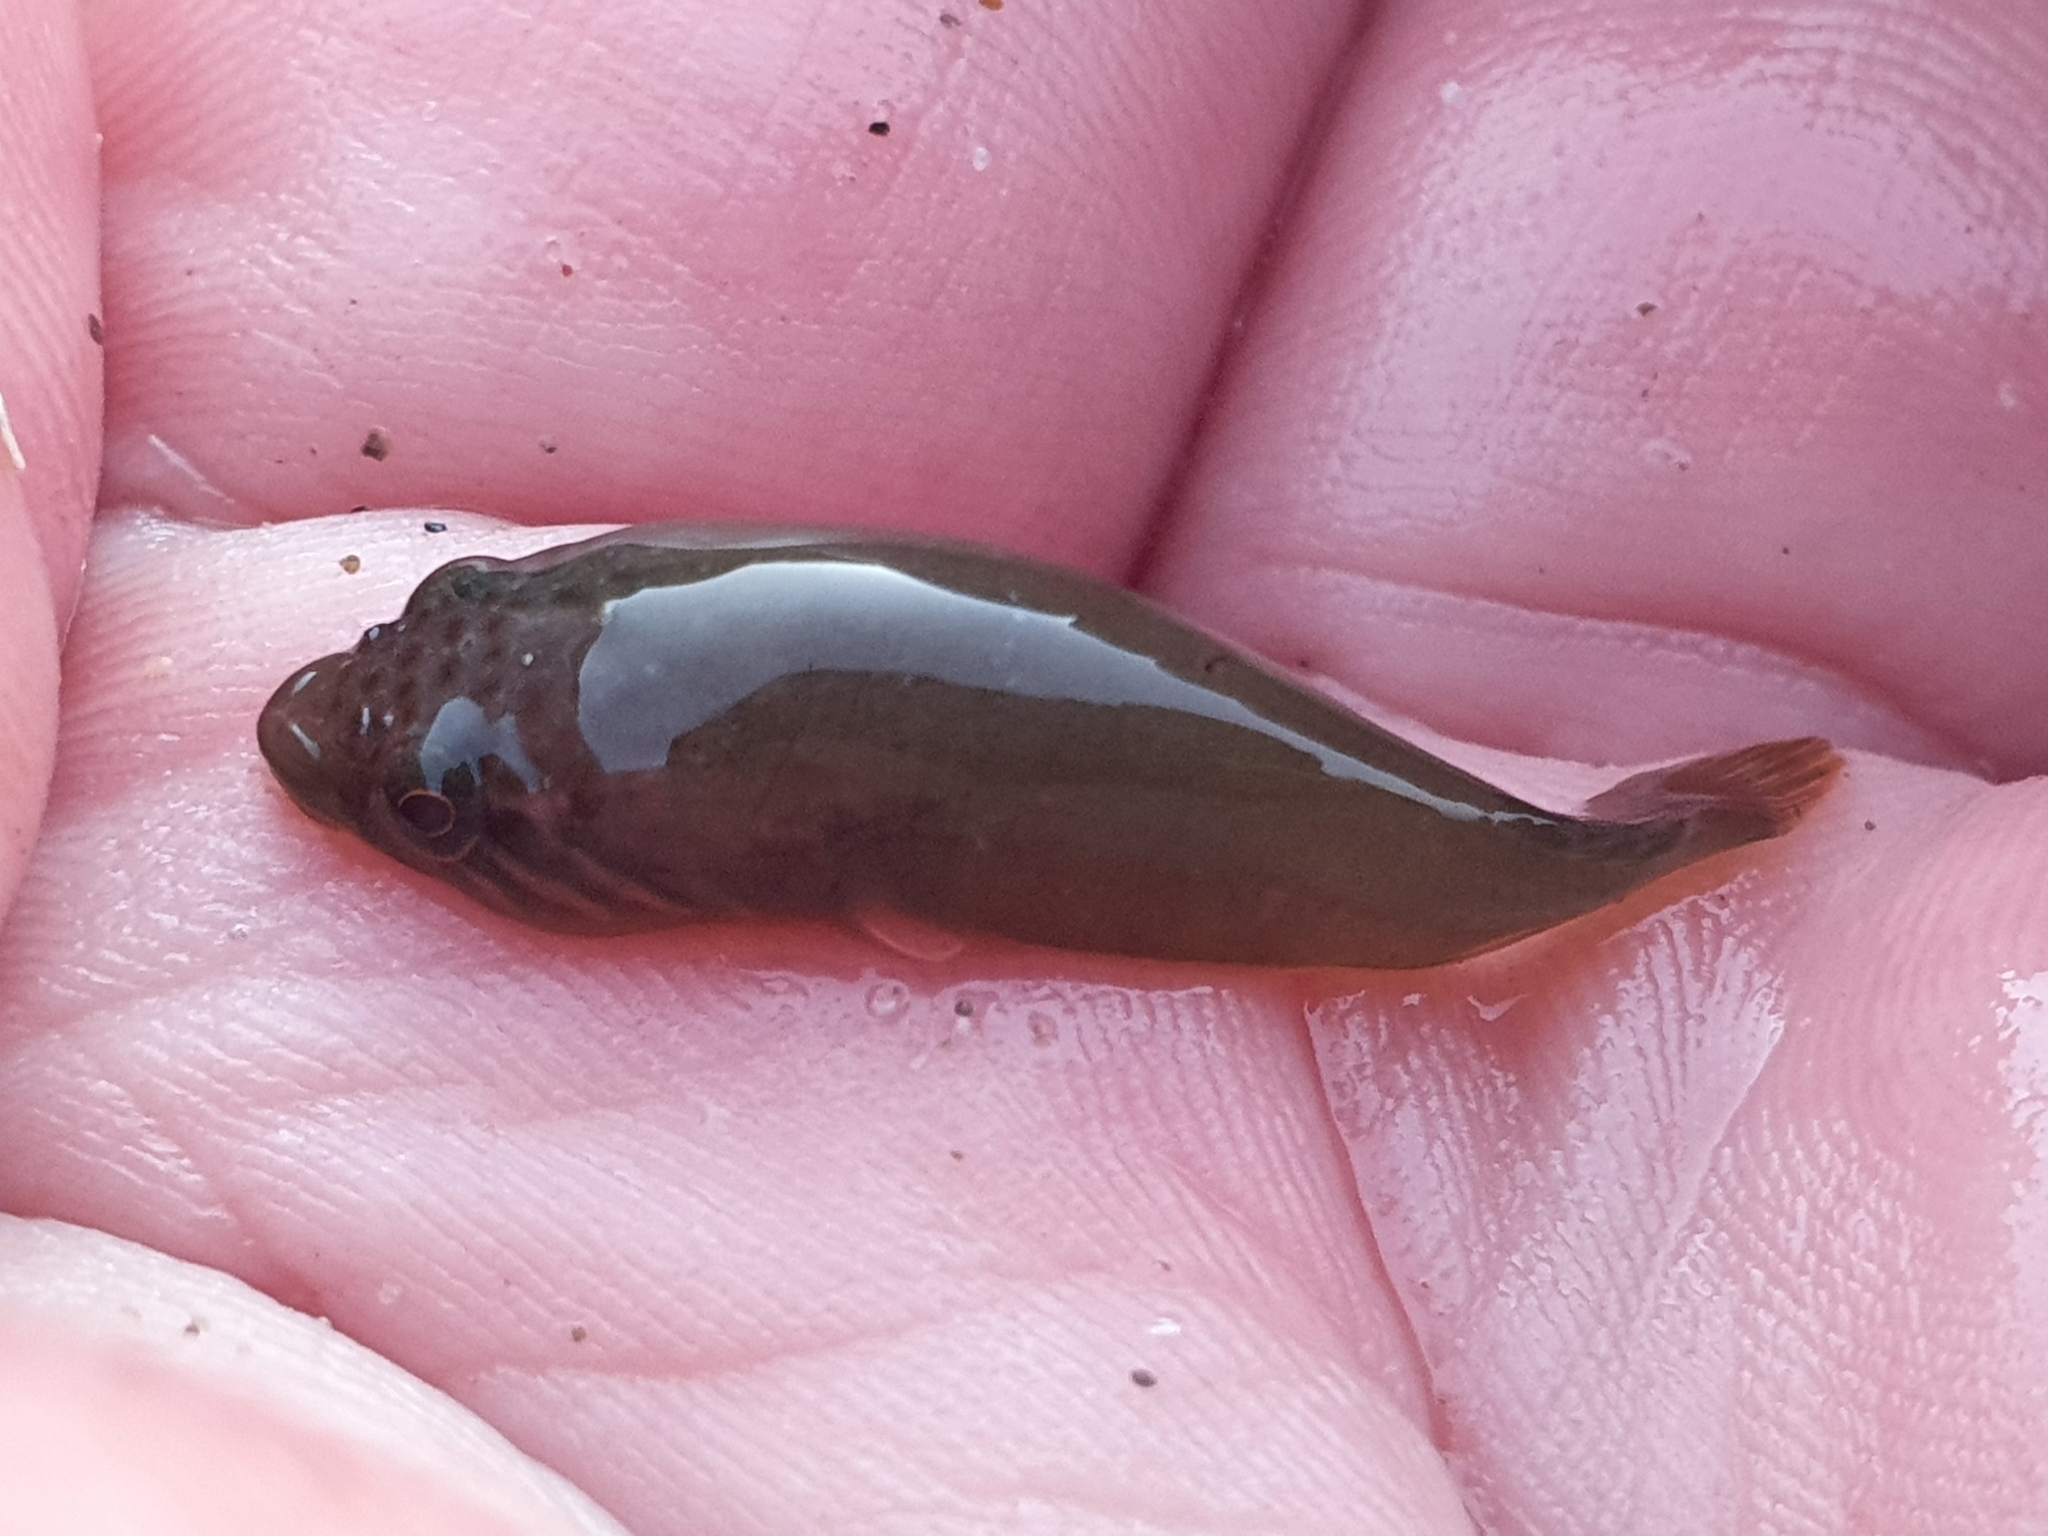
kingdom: Animalia
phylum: Chordata
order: Gobiesociformes
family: Gobiesocidae
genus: Trachelochismus
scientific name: Trachelochismus pinnulatus
